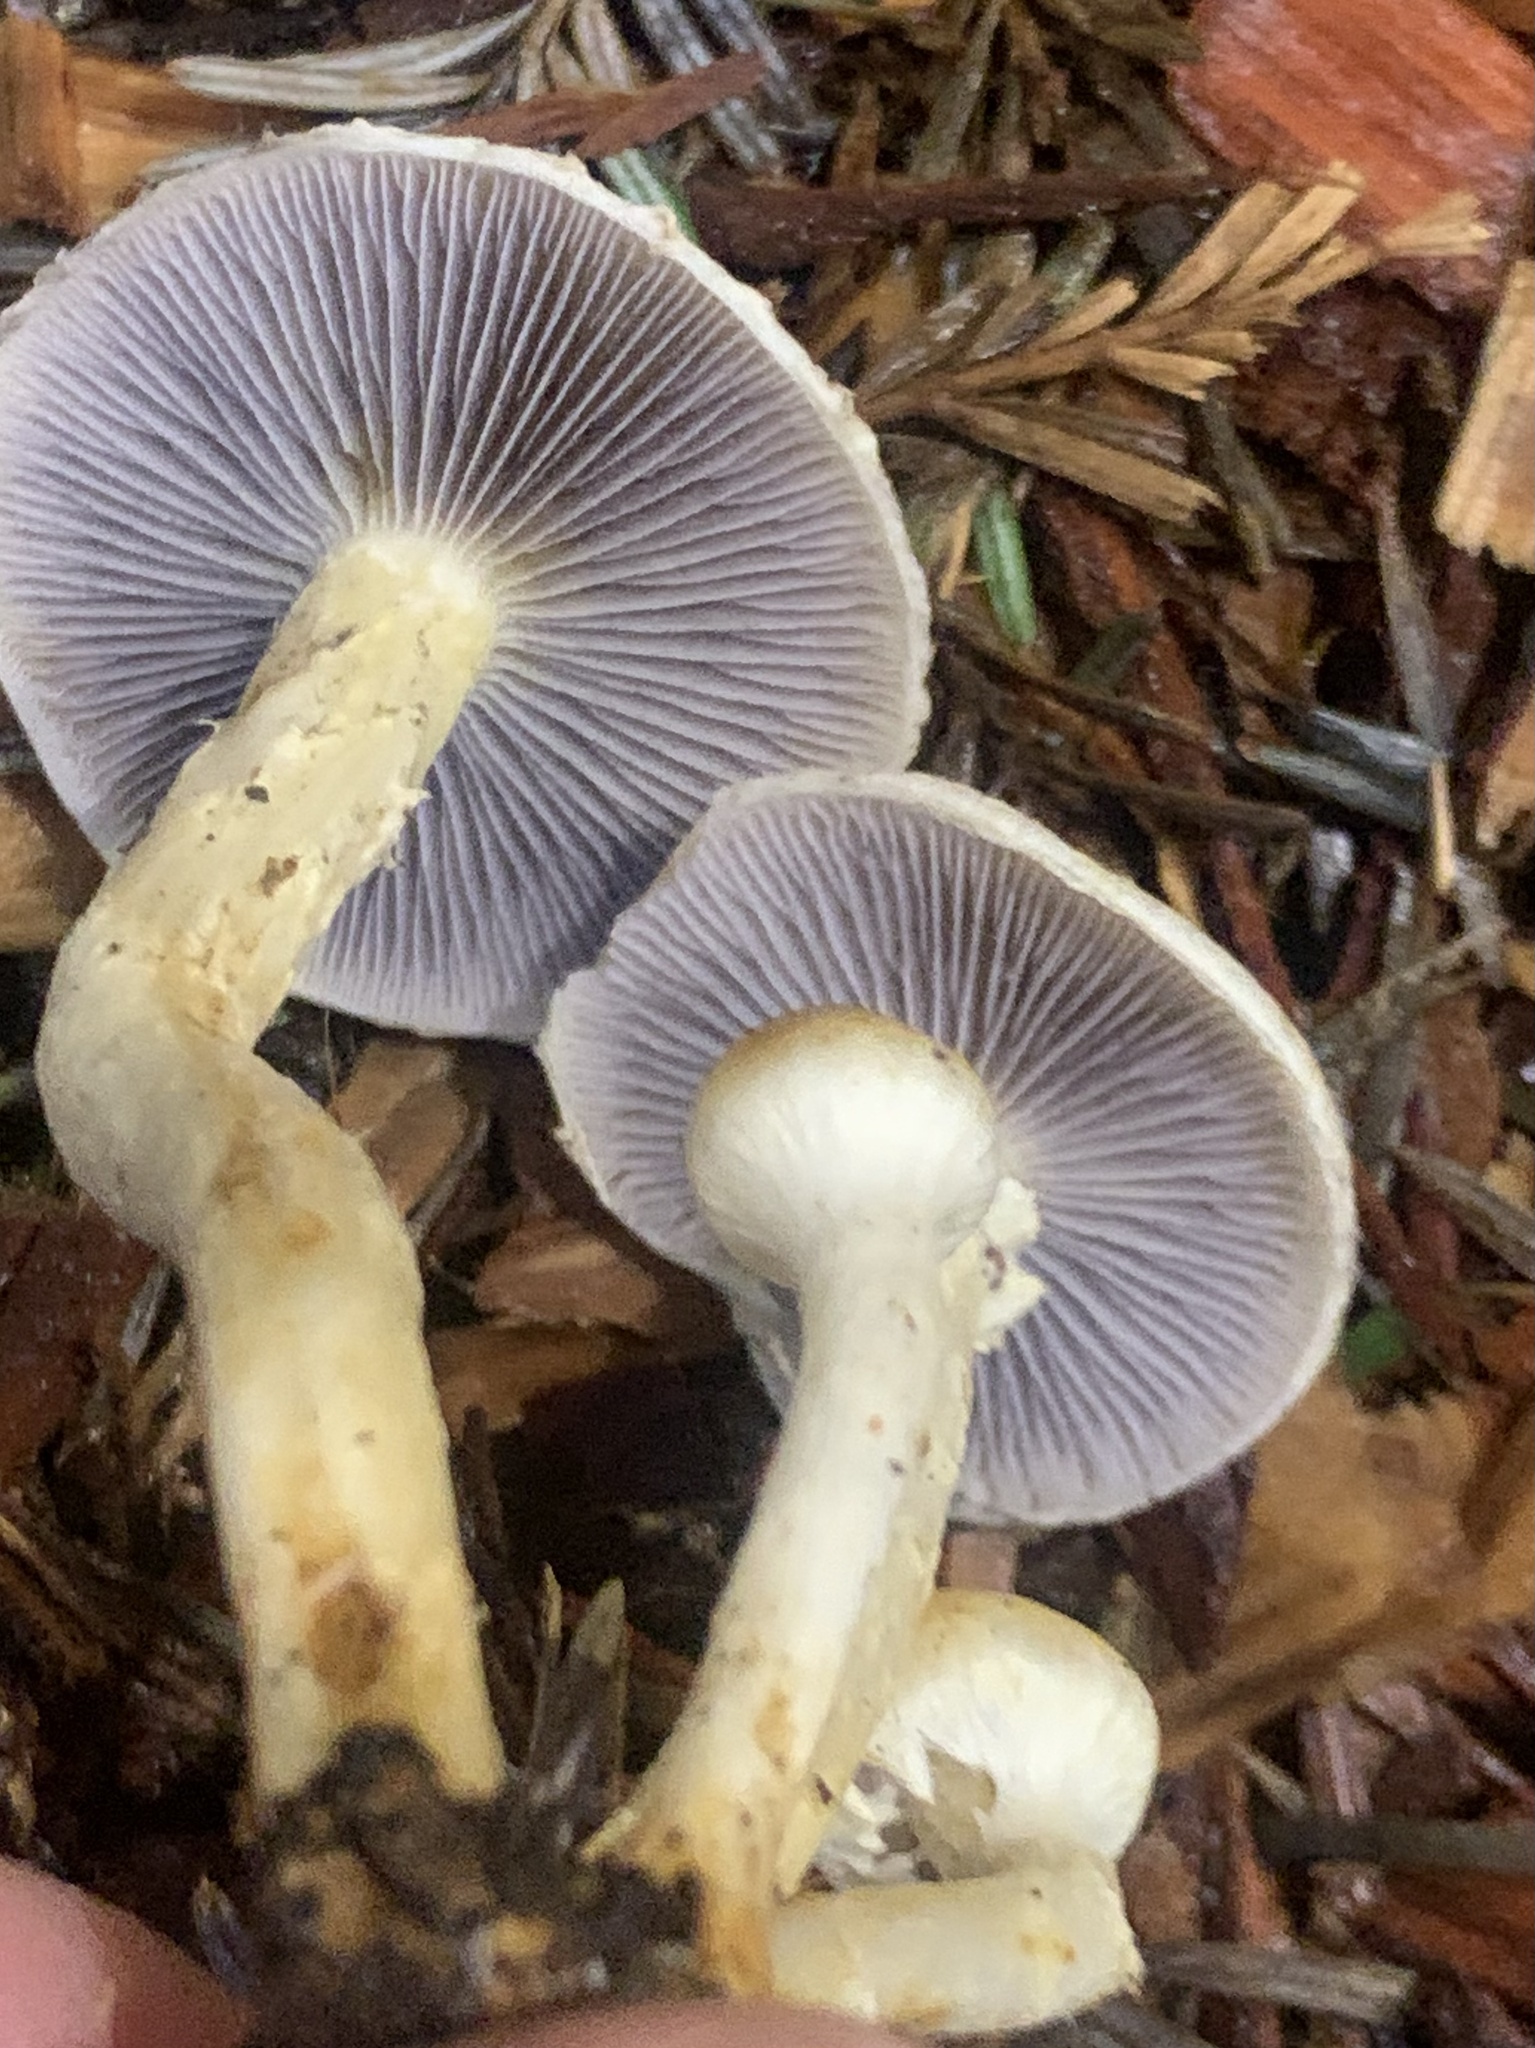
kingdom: Fungi
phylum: Basidiomycota
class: Agaricomycetes
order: Agaricales
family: Strophariaceae
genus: Leratiomyces
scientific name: Leratiomyces percevalii
